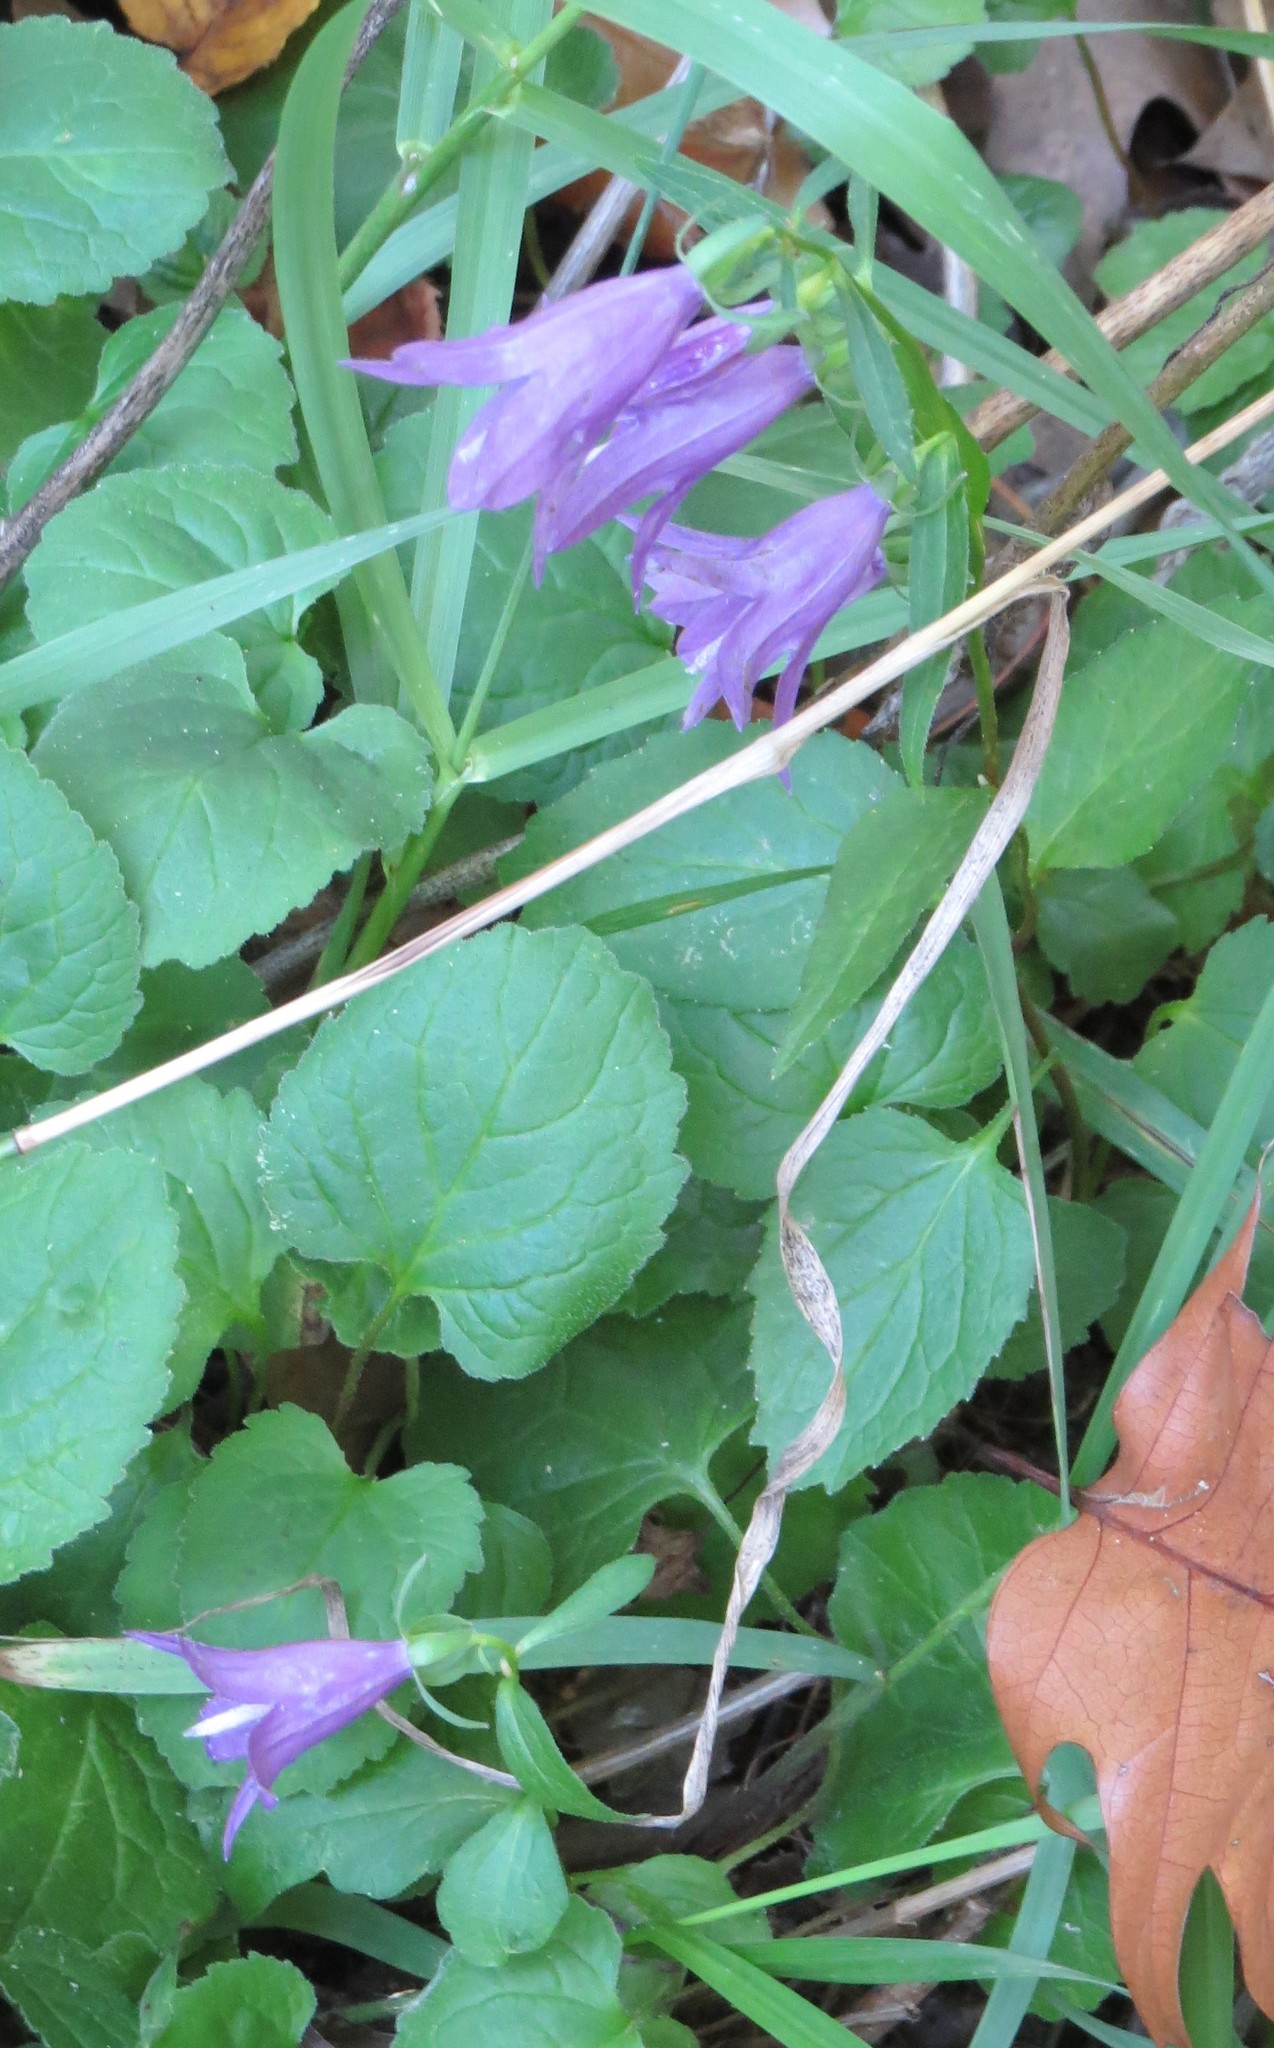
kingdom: Plantae
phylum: Tracheophyta
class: Magnoliopsida
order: Asterales
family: Campanulaceae
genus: Campanula
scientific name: Campanula rapunculoides
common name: Creeping bellflower
